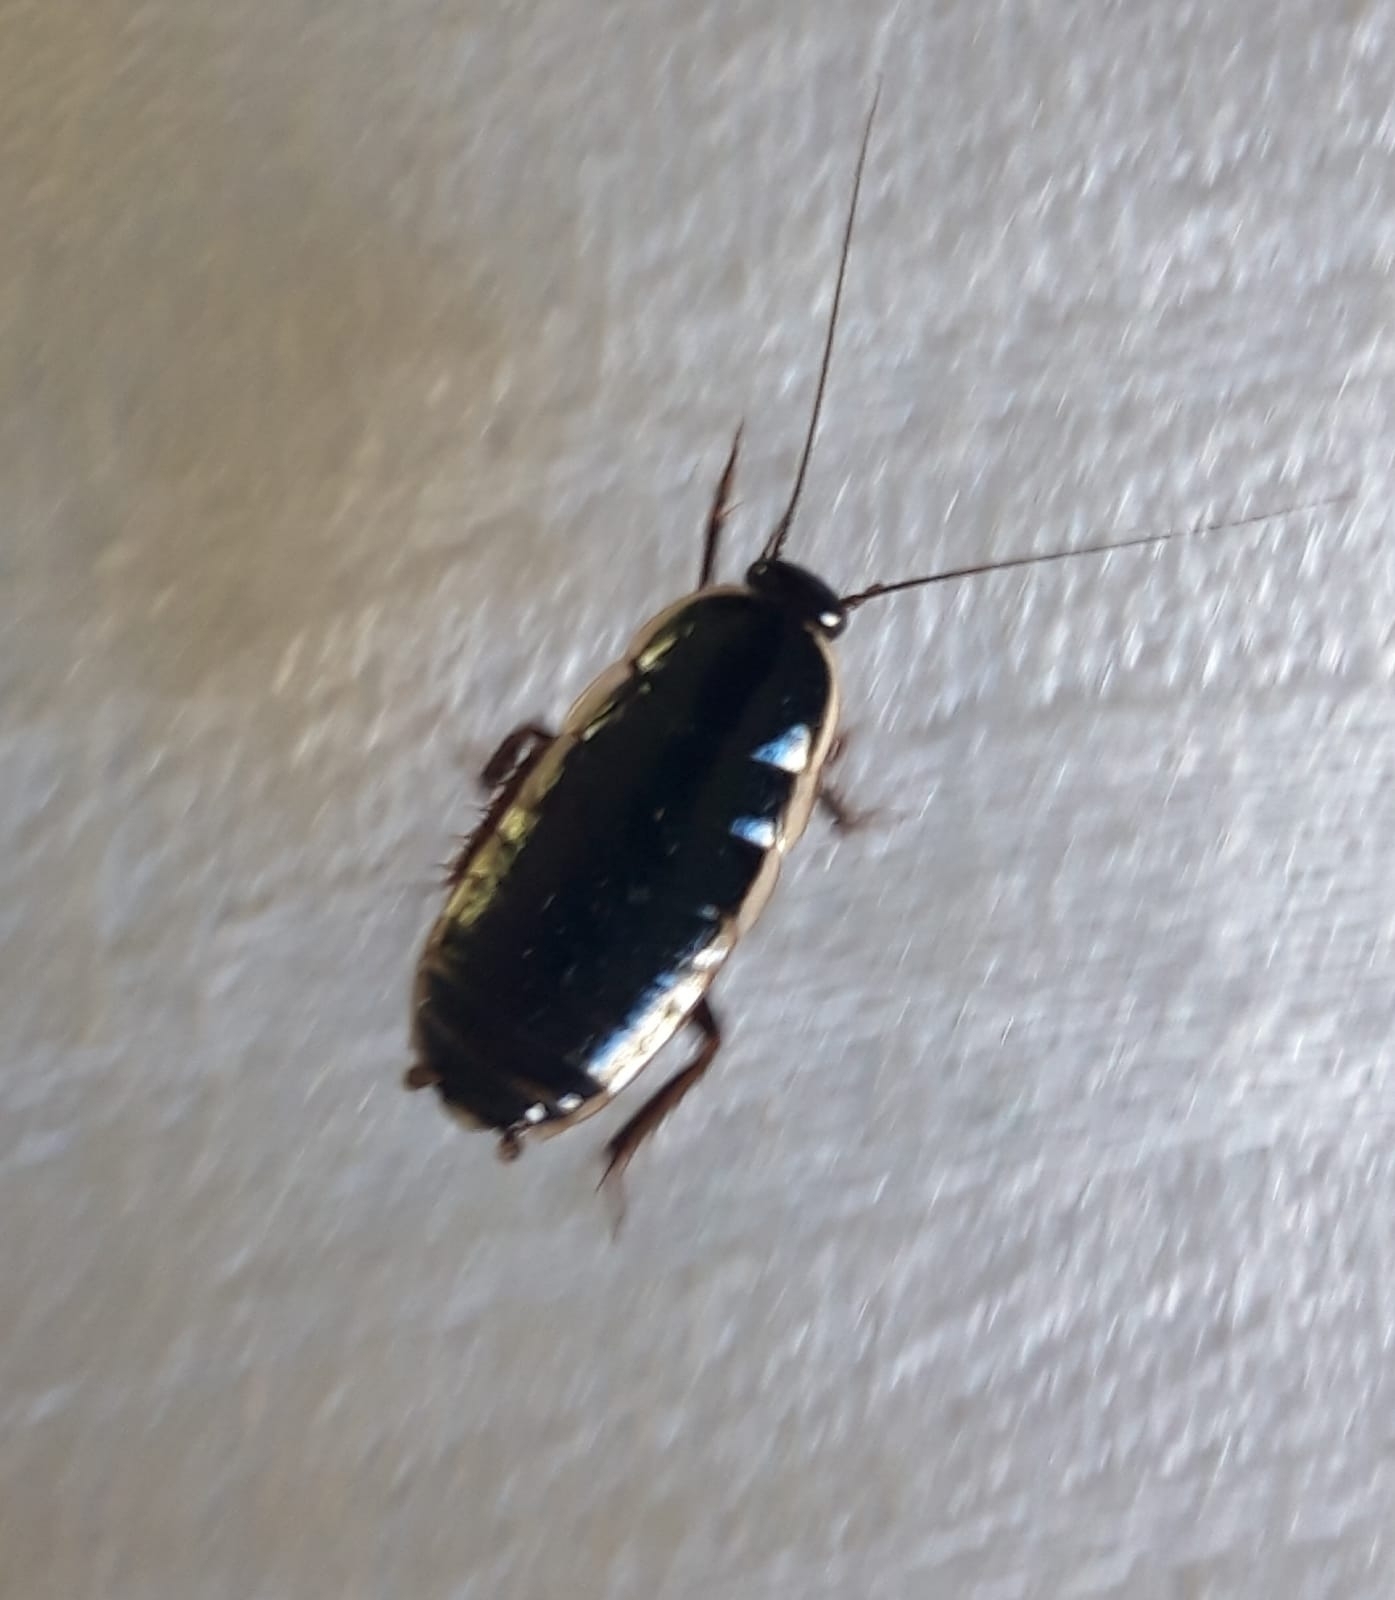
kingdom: Animalia
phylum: Arthropoda
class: Insecta
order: Blattodea
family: Ectobiidae
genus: Loboptera
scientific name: Loboptera decipiens
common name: Lobe-winged cockroach
